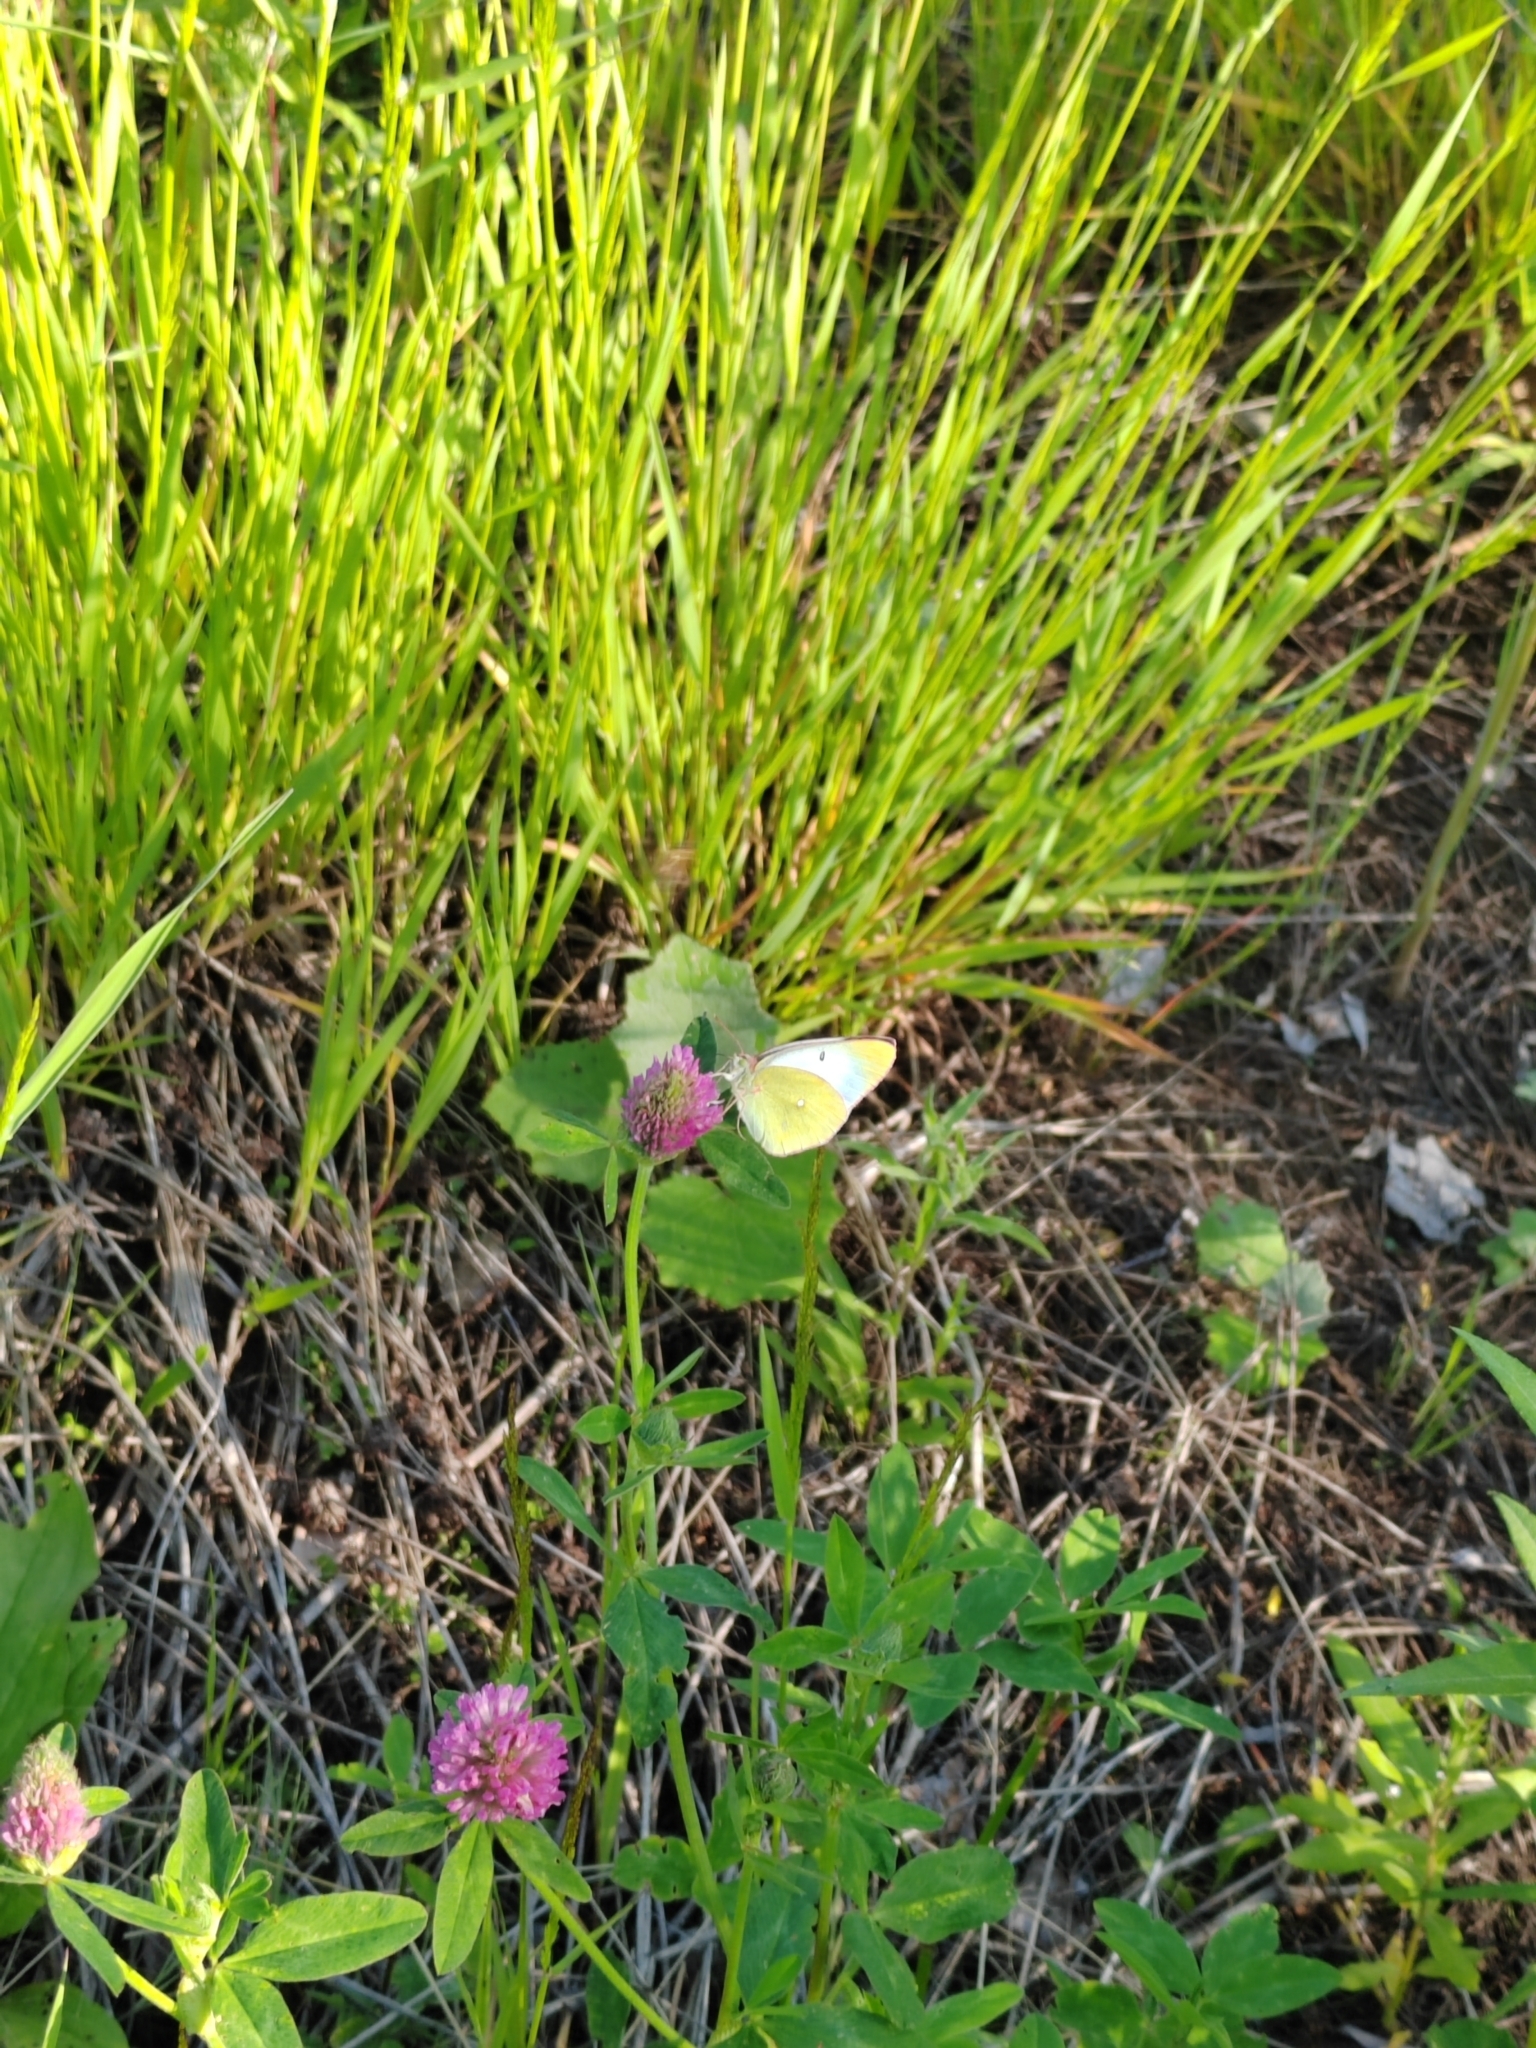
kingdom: Animalia
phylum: Arthropoda
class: Insecta
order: Lepidoptera
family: Pieridae
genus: Colias
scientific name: Colias palaeno
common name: Moorland clouded yellow
